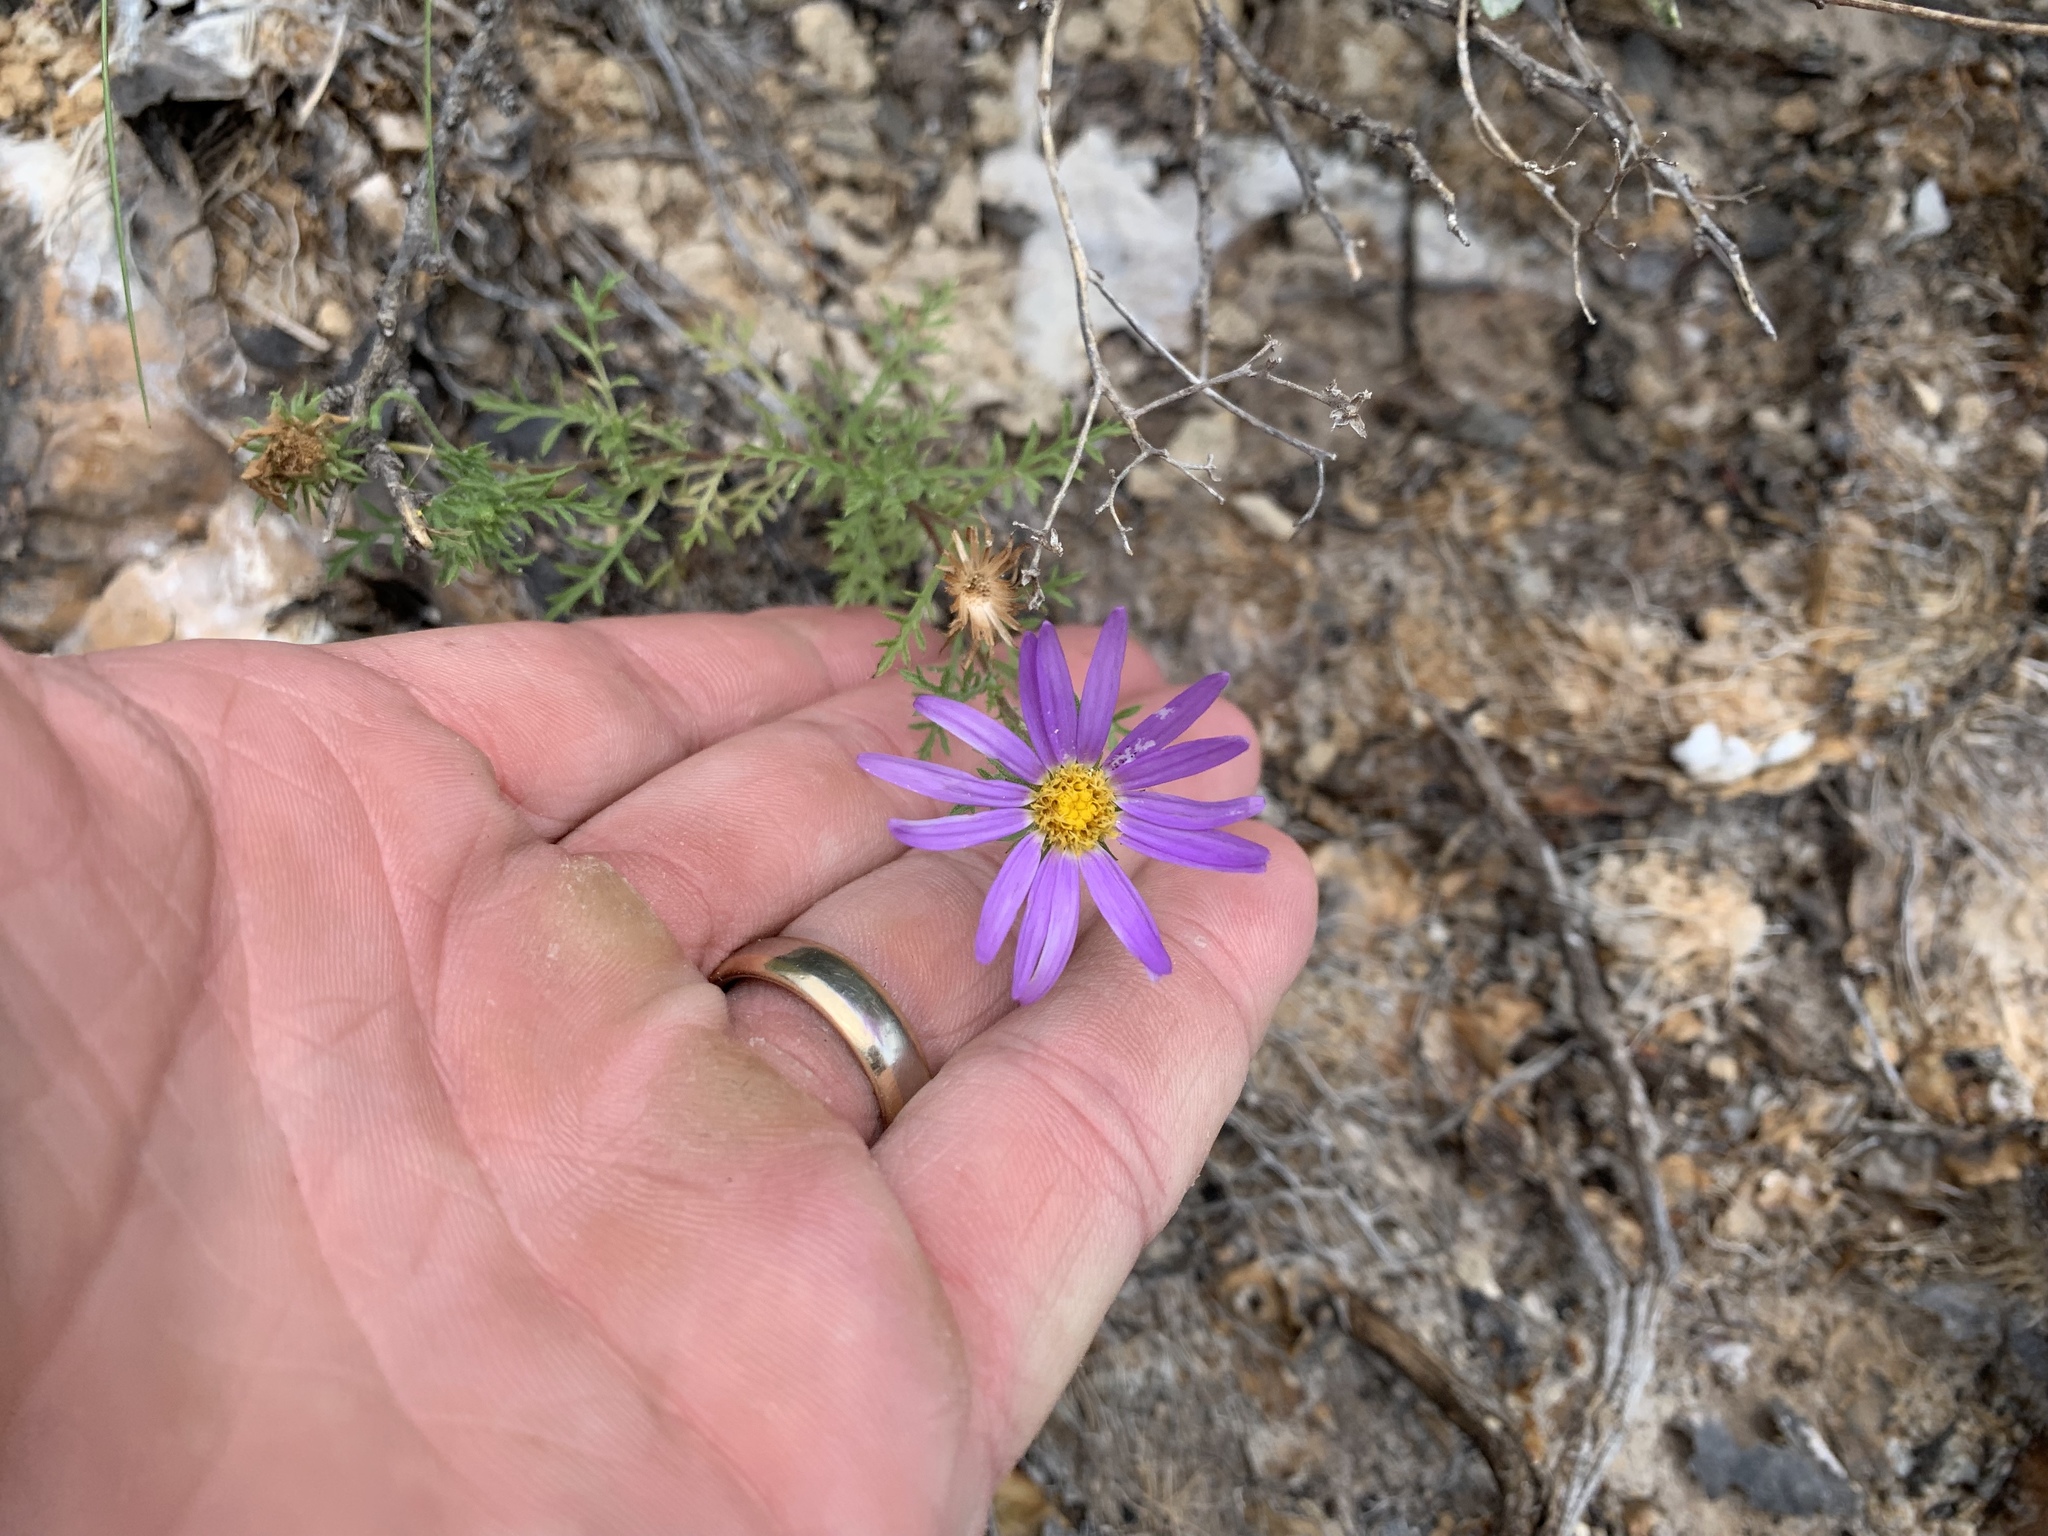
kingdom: Plantae
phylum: Tracheophyta
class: Magnoliopsida
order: Asterales
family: Asteraceae
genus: Machaeranthera
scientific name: Machaeranthera tanacetifolia
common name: Tansy-aster
